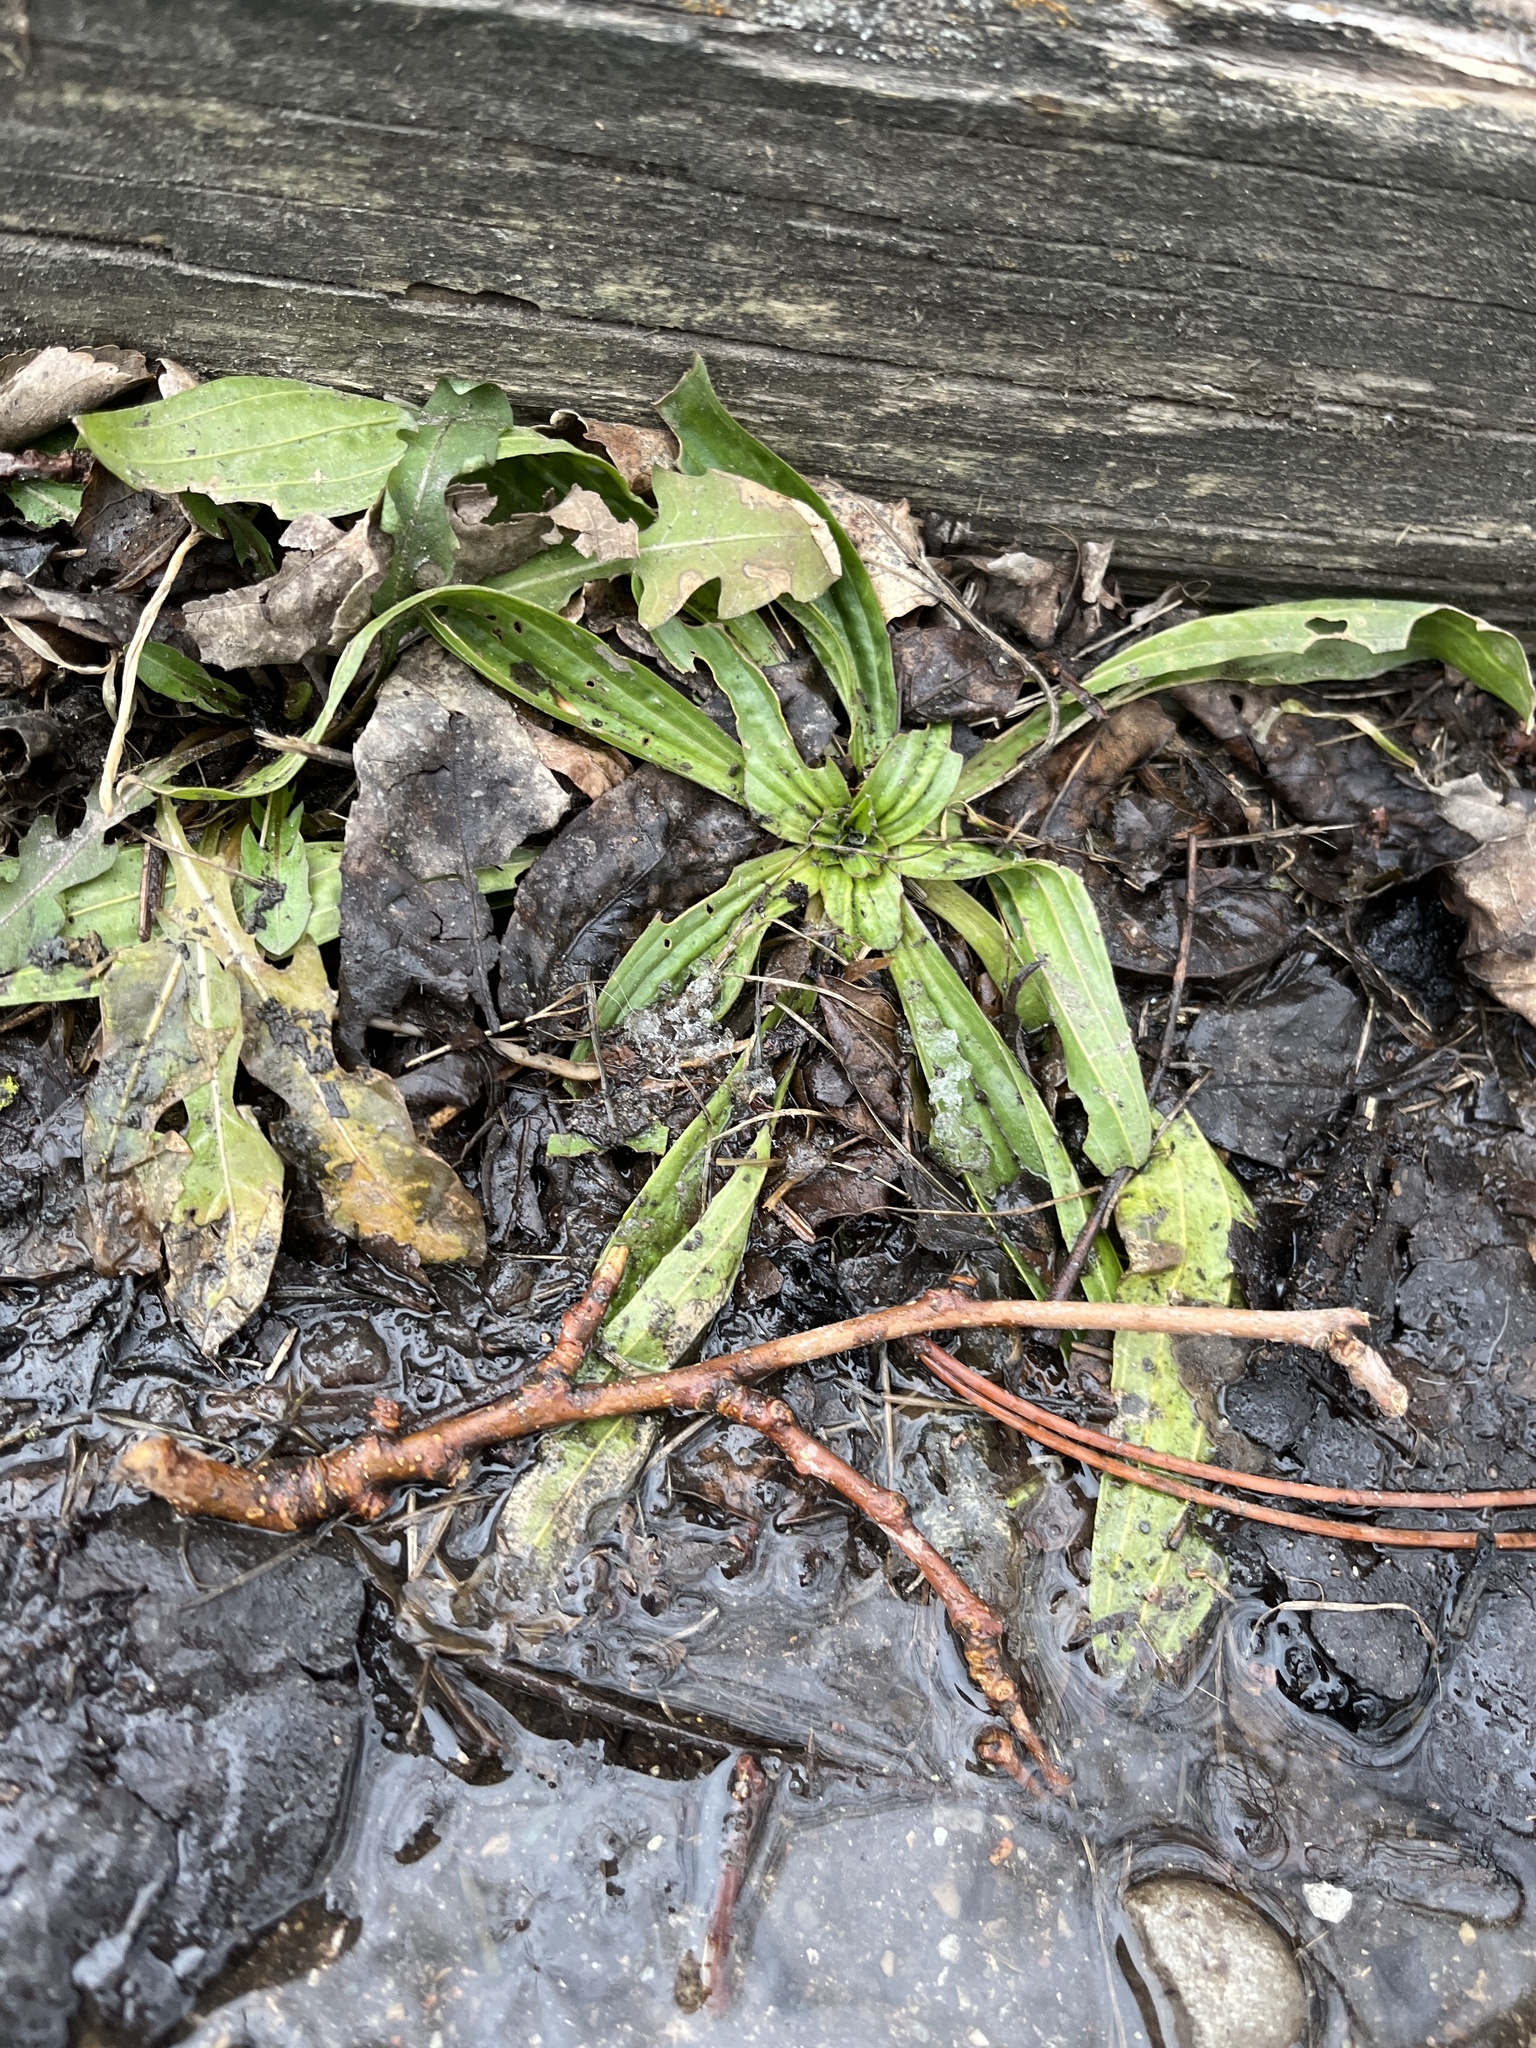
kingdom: Plantae
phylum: Tracheophyta
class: Magnoliopsida
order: Lamiales
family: Plantaginaceae
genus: Plantago
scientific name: Plantago lanceolata
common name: Ribwort plantain
